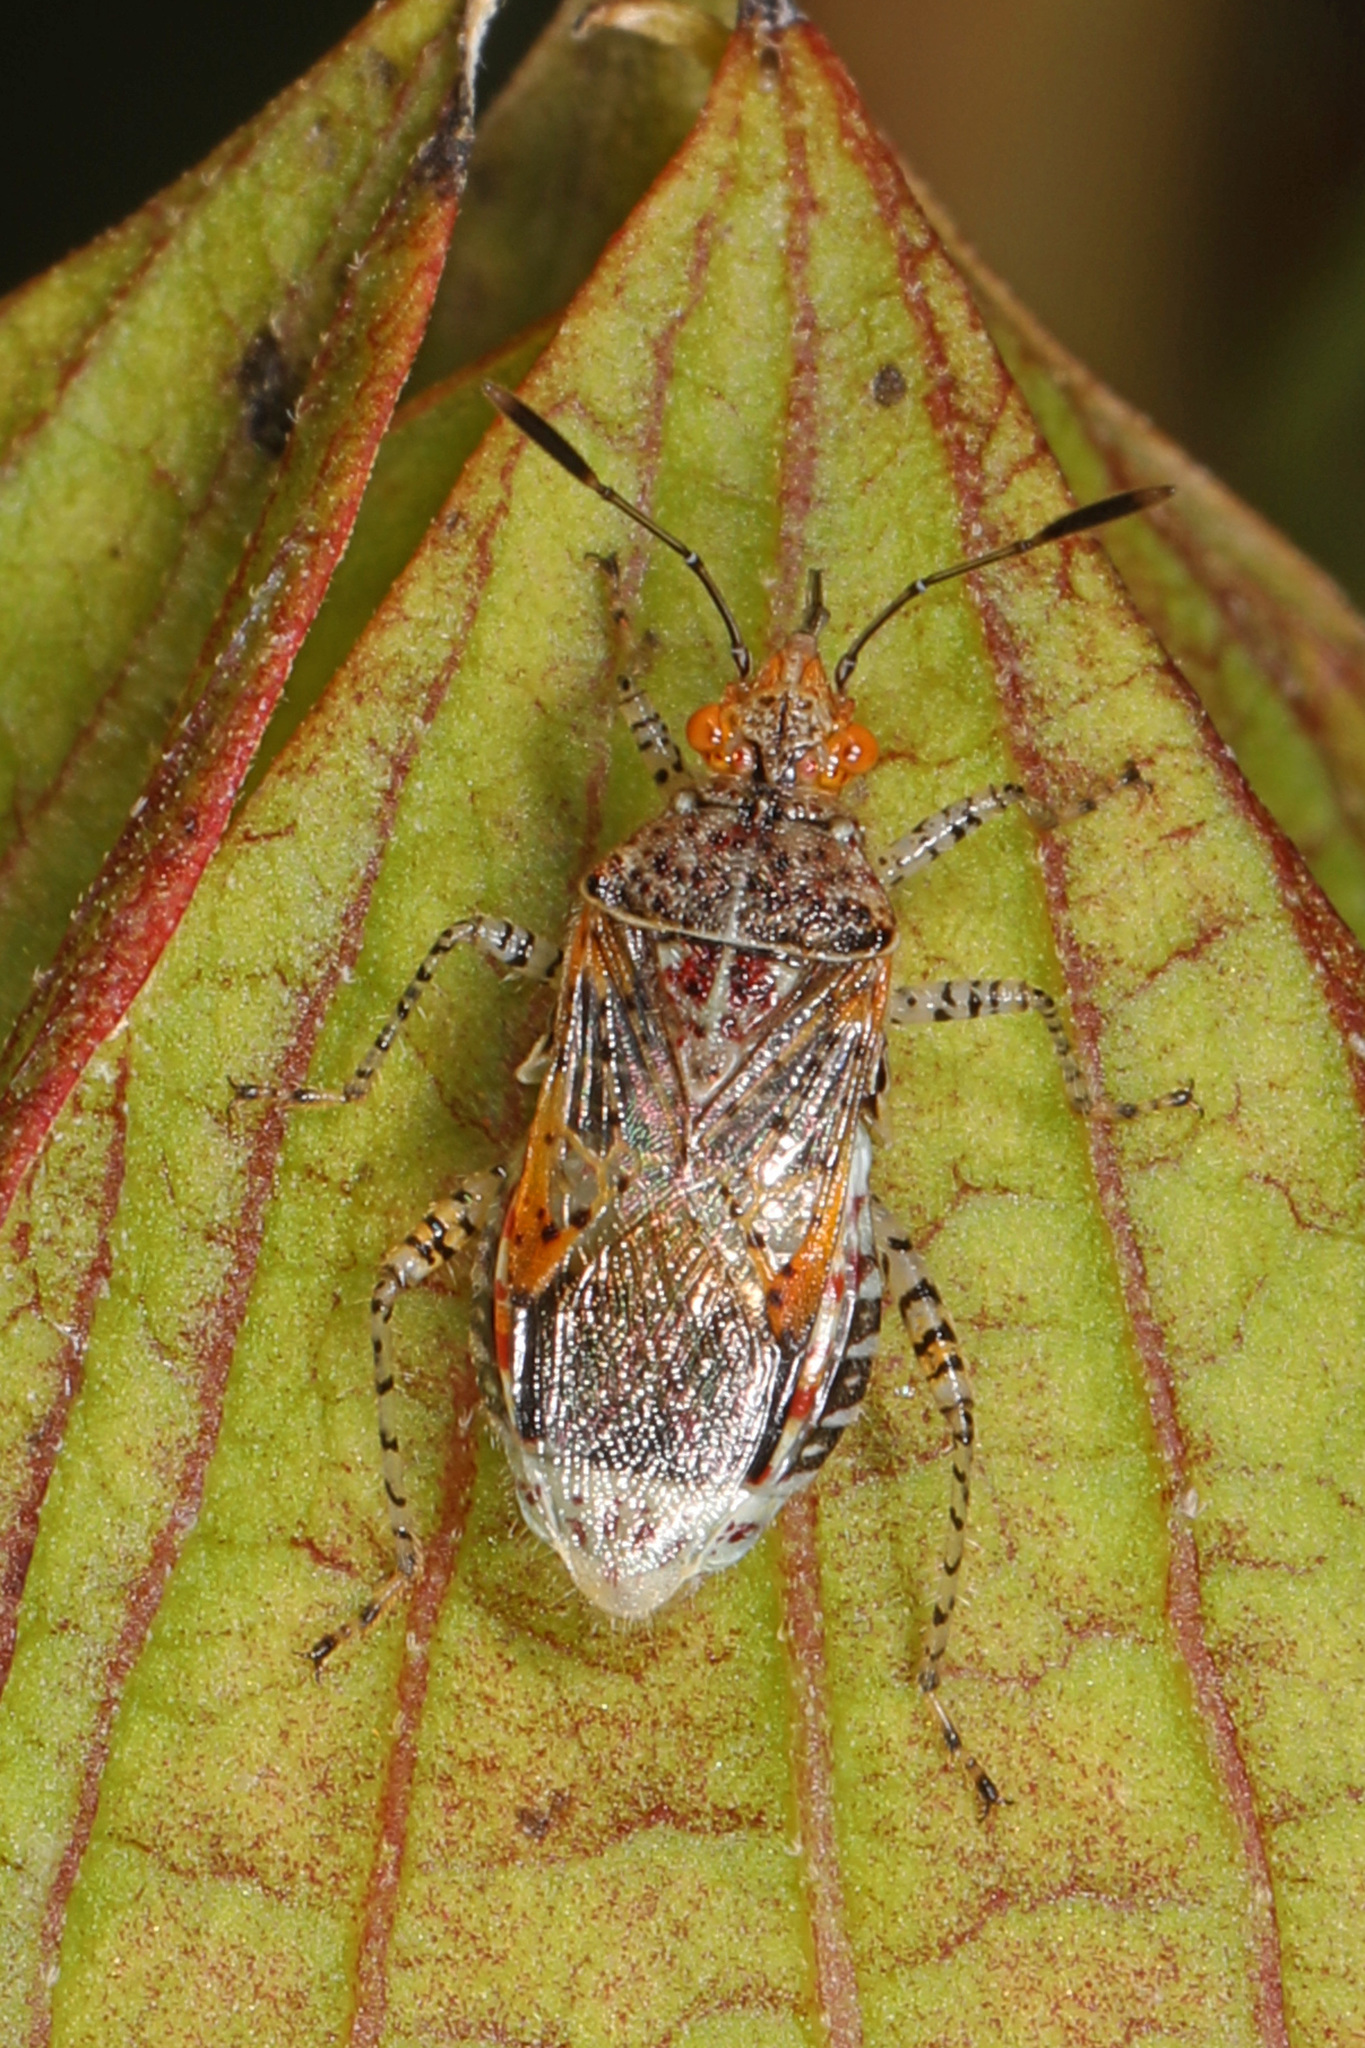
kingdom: Animalia
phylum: Arthropoda
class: Insecta
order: Hemiptera
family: Rhopalidae
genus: Niesthrea
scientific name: Niesthrea louisianica
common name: Scentless plant bug
